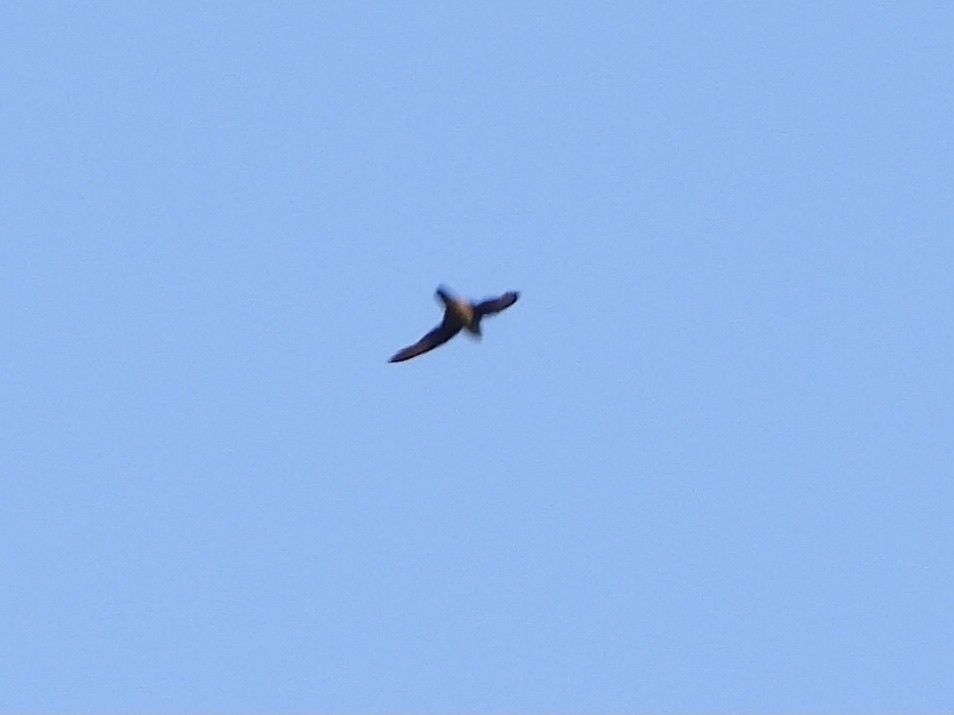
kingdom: Animalia
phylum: Chordata
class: Aves
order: Apodiformes
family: Apodidae
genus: Chaetura
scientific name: Chaetura vauxi
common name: Vaux's swift
